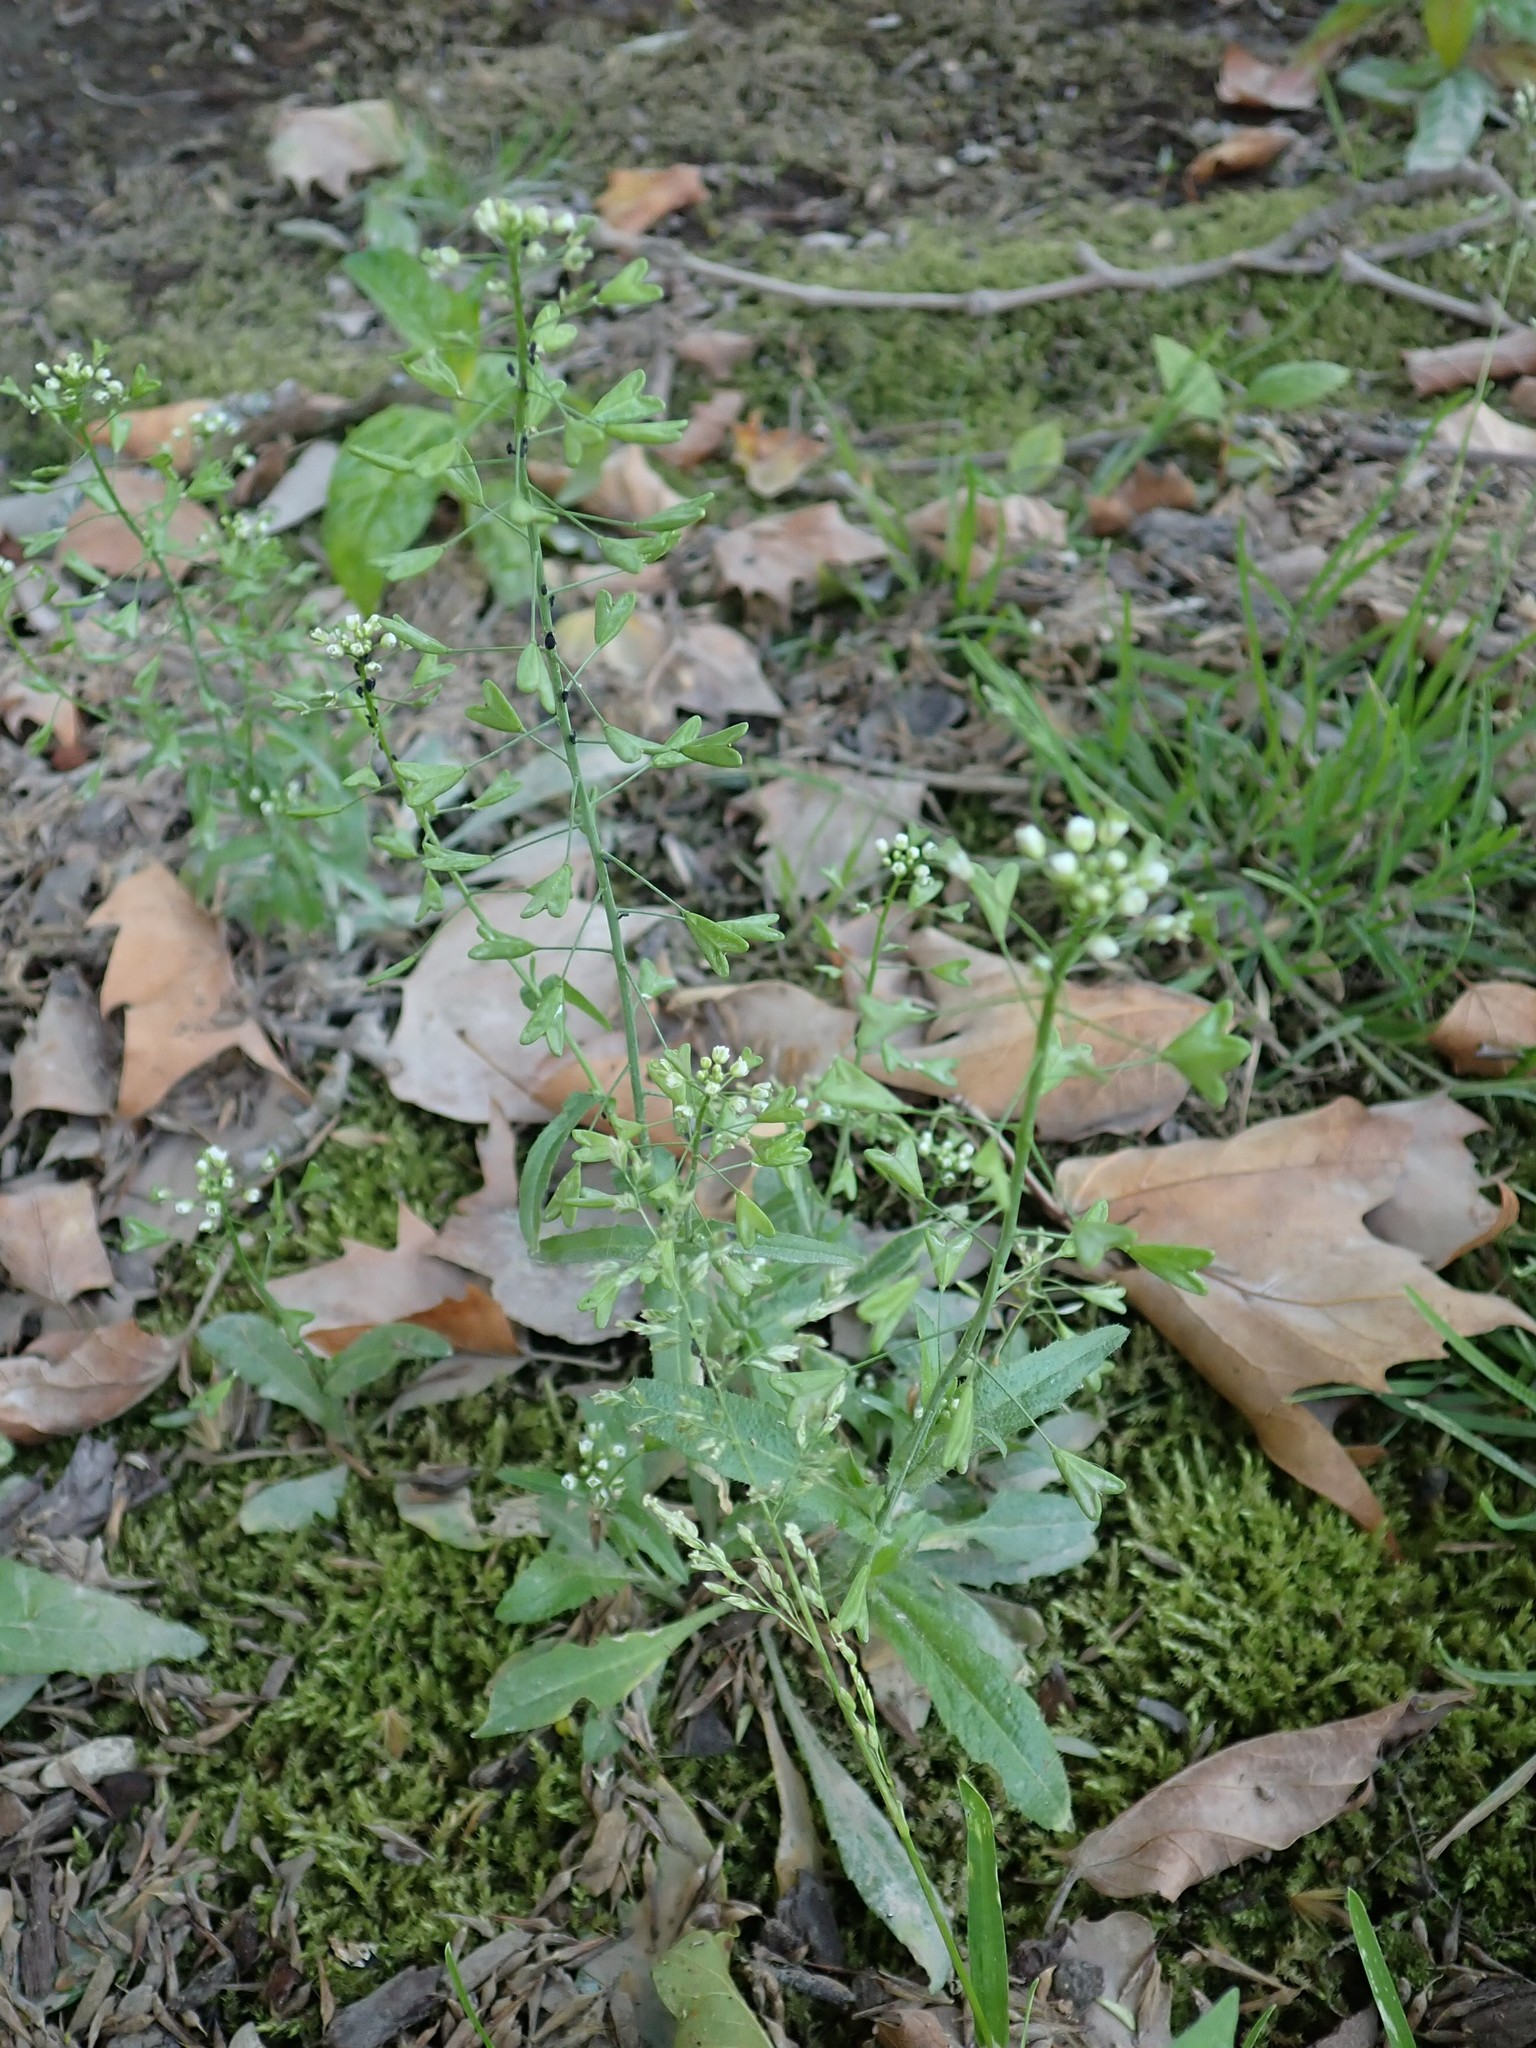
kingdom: Plantae
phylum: Tracheophyta
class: Magnoliopsida
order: Brassicales
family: Brassicaceae
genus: Capsella
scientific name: Capsella bursa-pastoris
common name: Shepherd's purse
